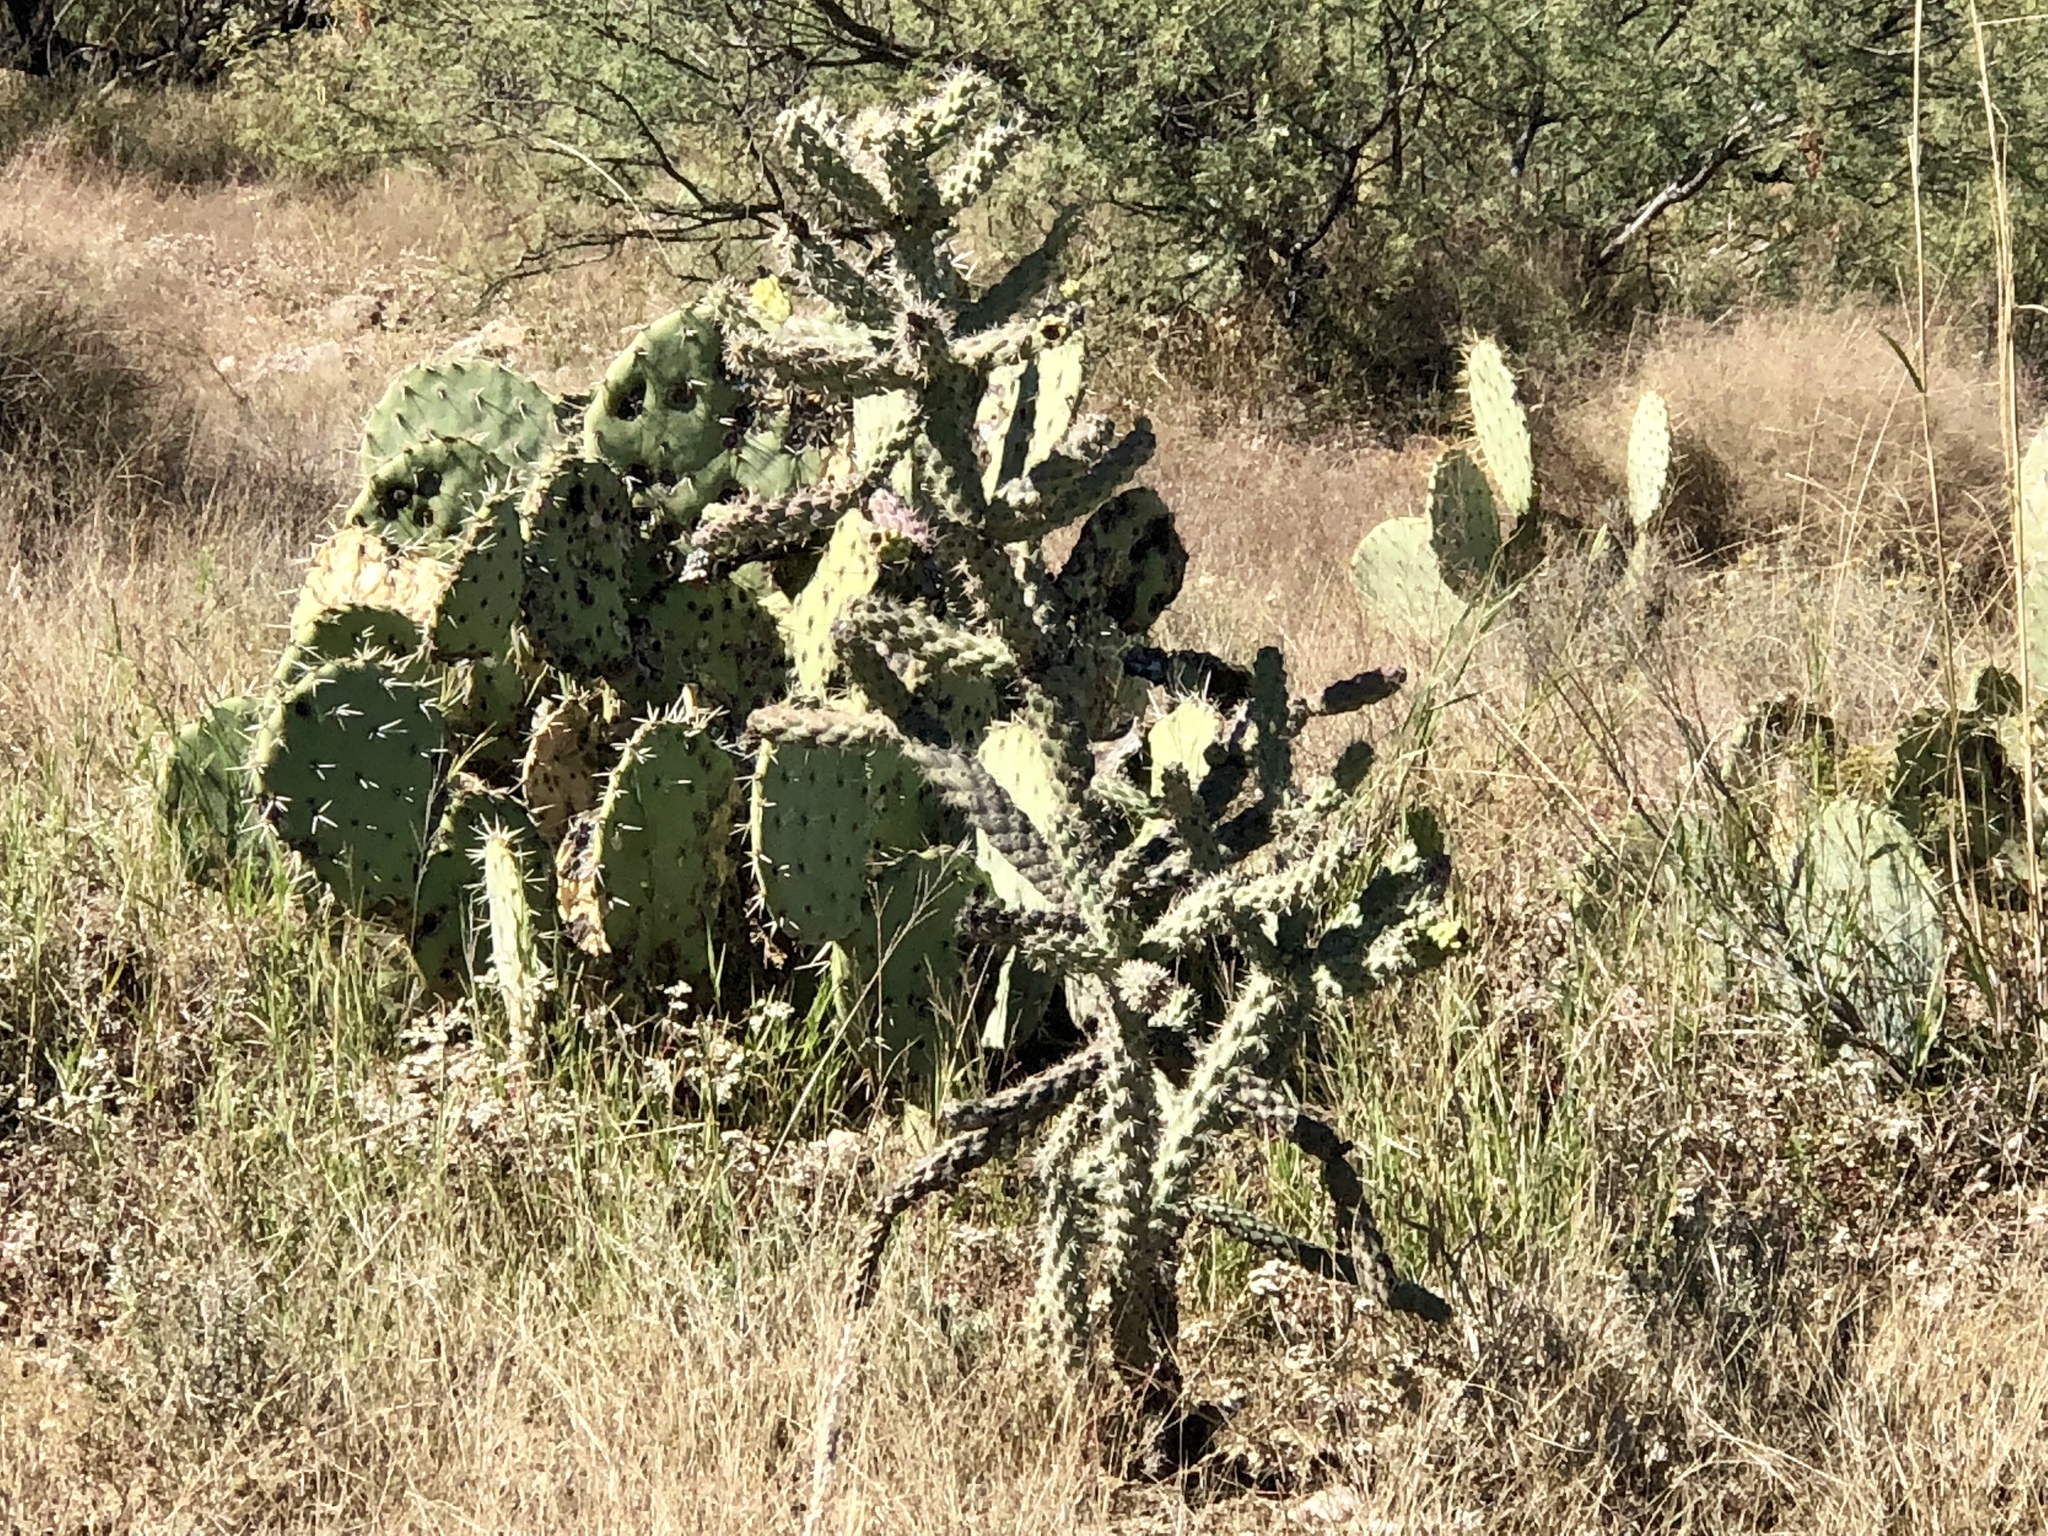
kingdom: Plantae
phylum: Tracheophyta
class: Magnoliopsida
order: Caryophyllales
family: Cactaceae
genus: Cylindropuntia
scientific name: Cylindropuntia imbricata
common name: Candelabrum cactus
